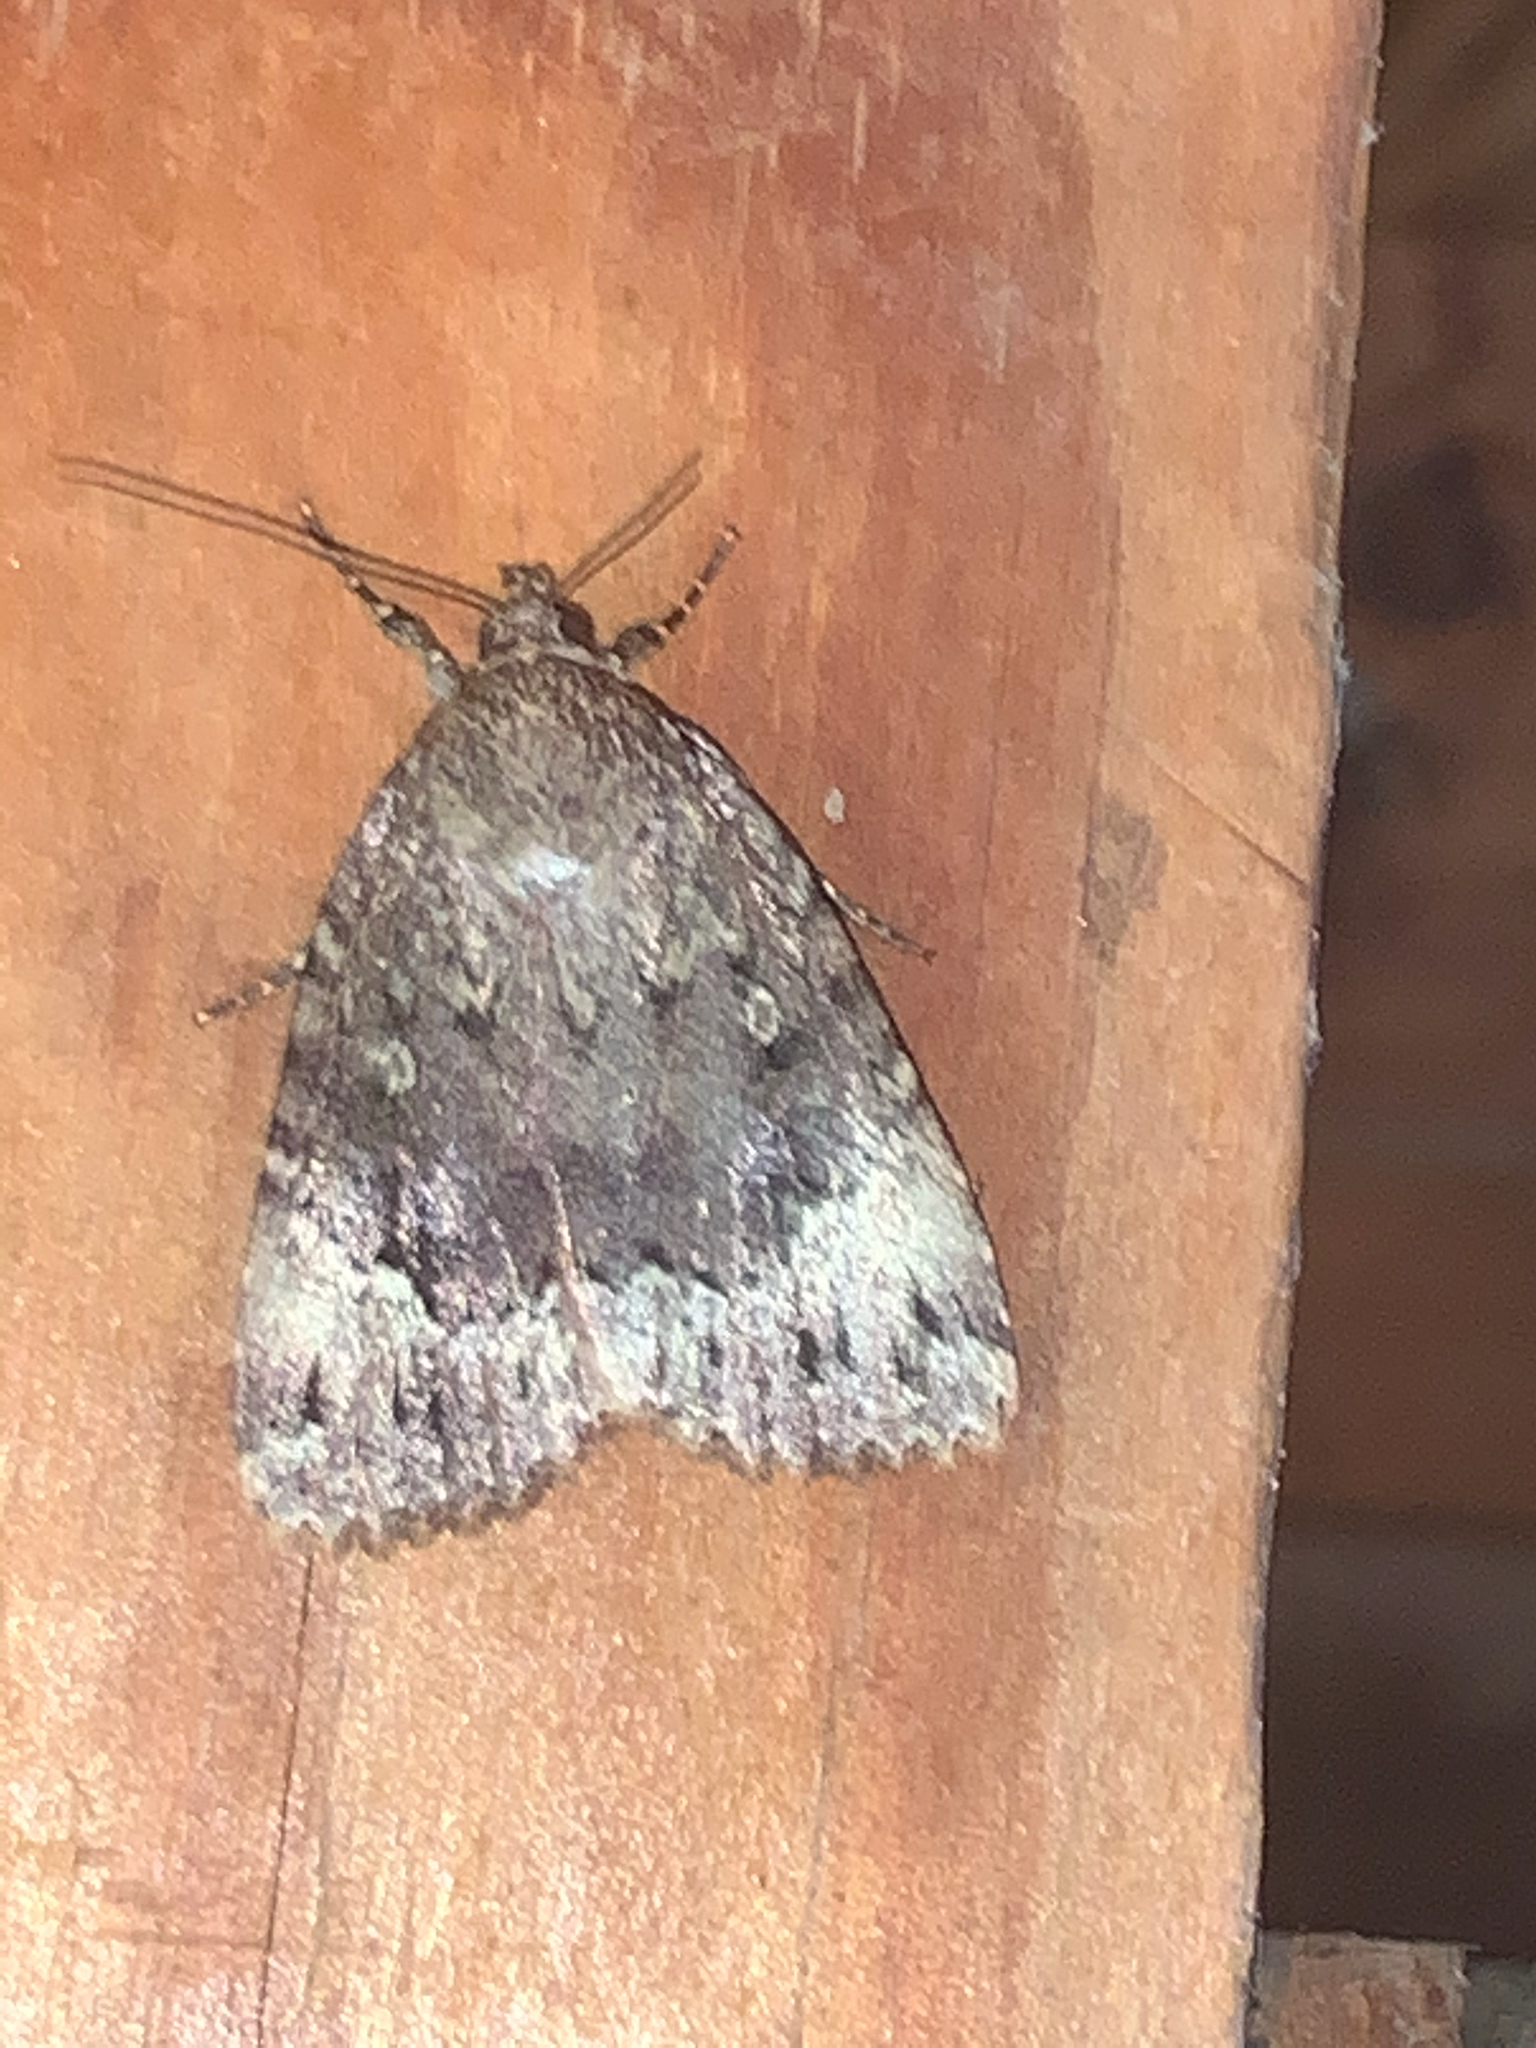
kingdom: Animalia
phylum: Arthropoda
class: Insecta
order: Lepidoptera
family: Noctuidae
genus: Amphipyra
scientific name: Amphipyra pyramidoides
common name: American copper underwing
